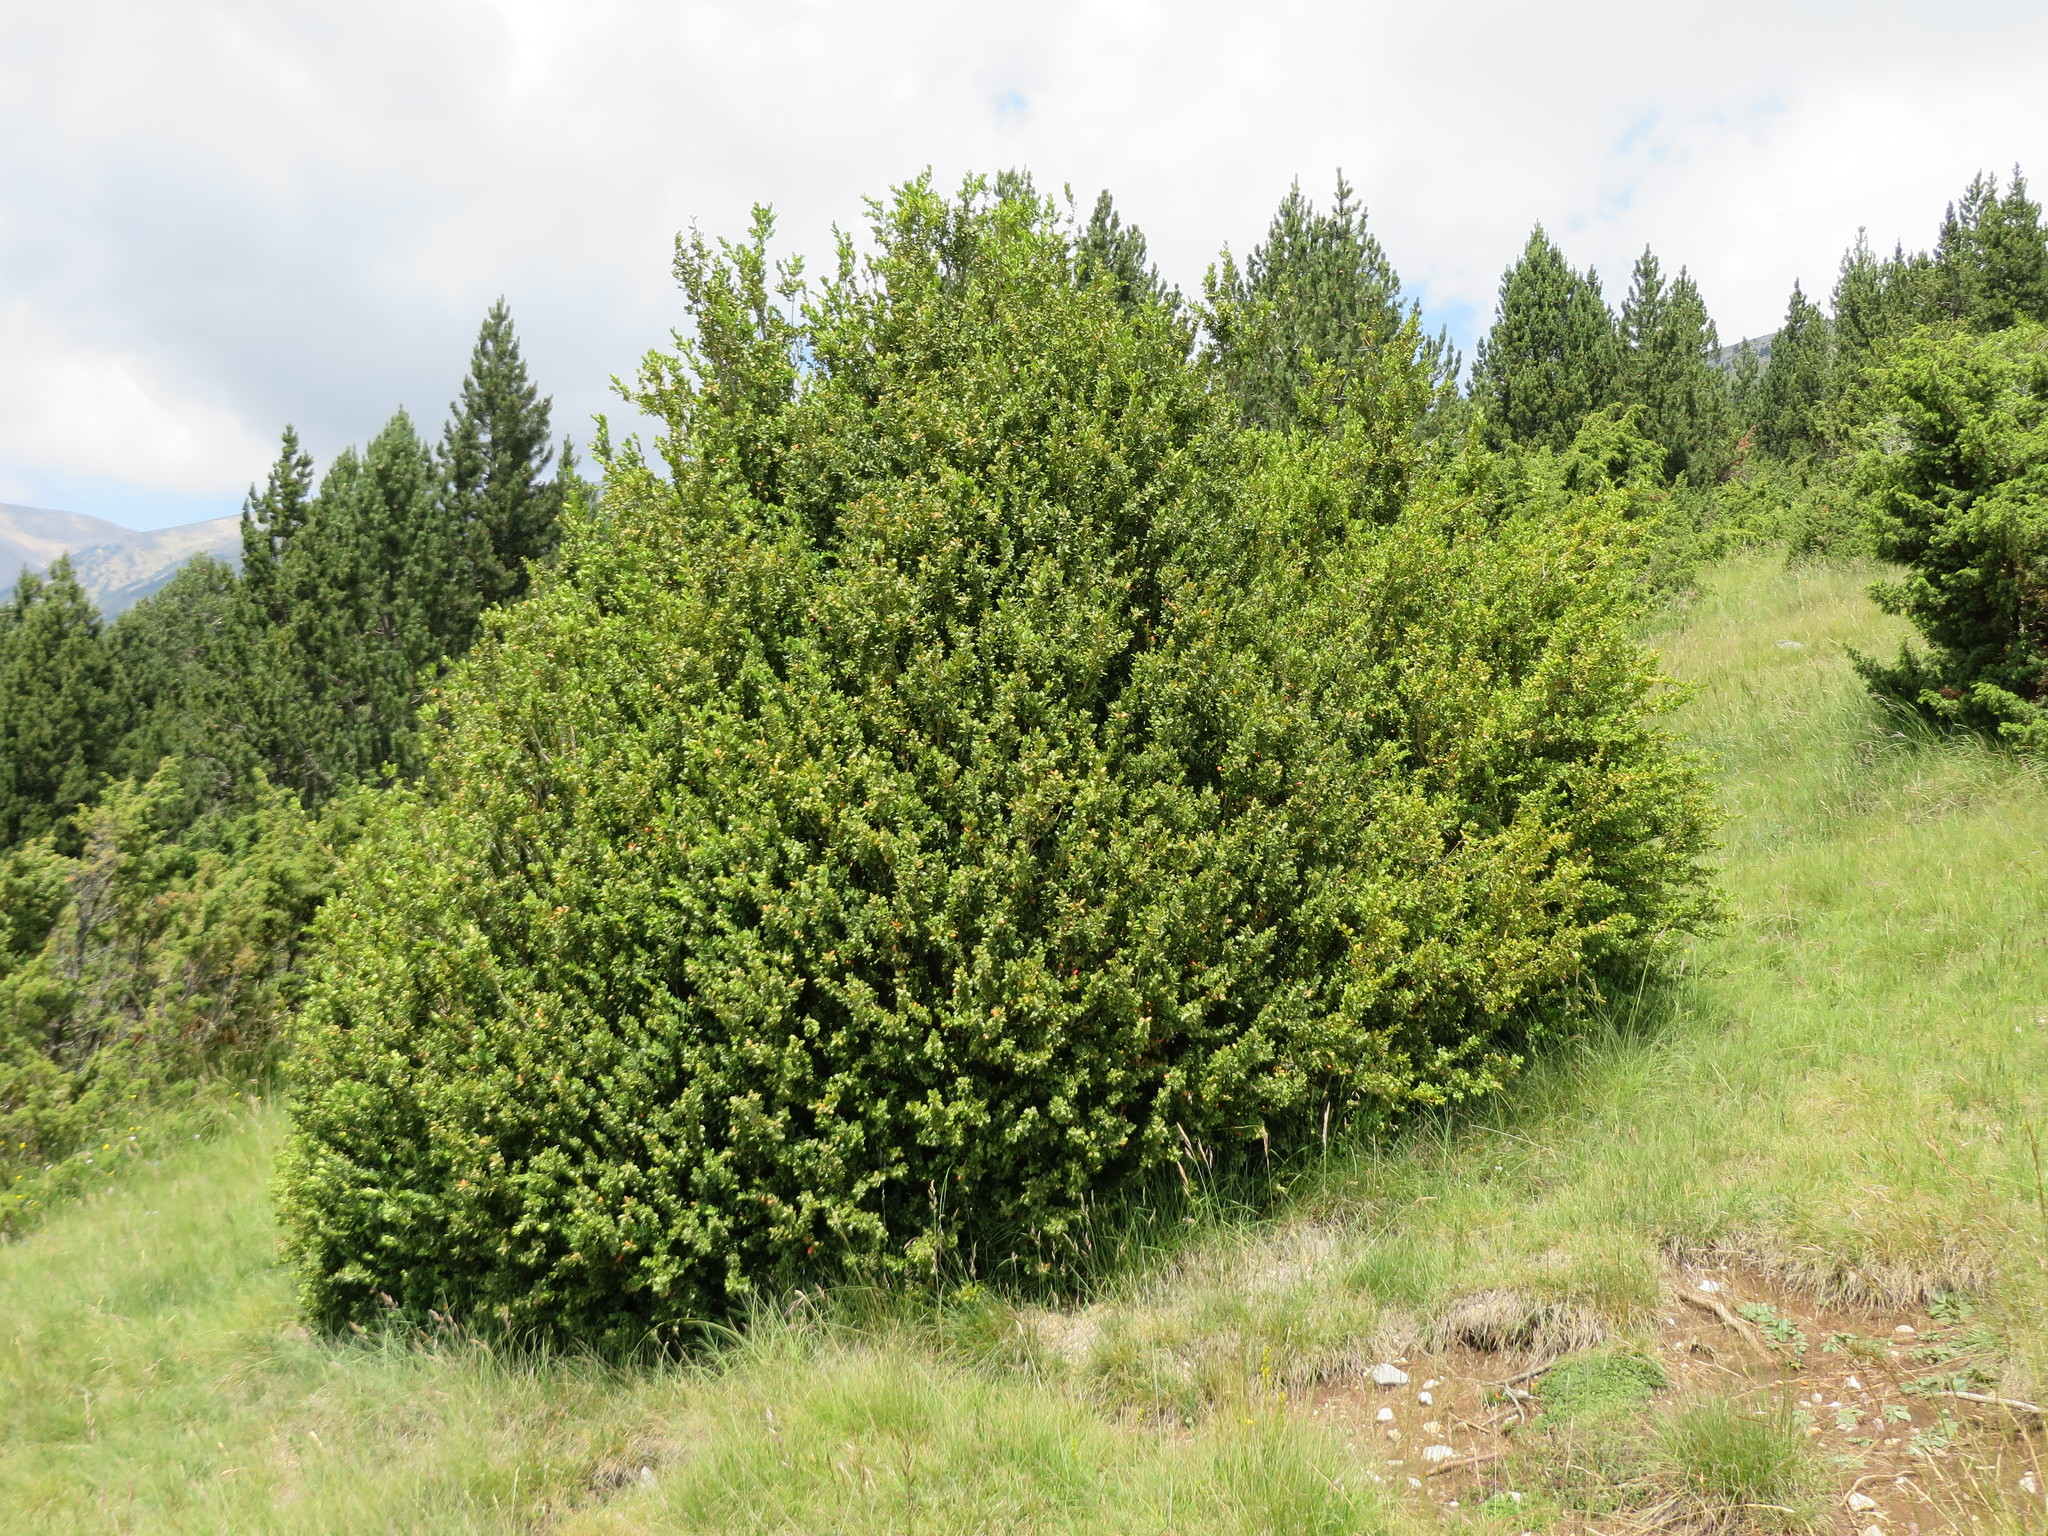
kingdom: Plantae
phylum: Tracheophyta
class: Magnoliopsida
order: Buxales
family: Buxaceae
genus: Buxus
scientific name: Buxus sempervirens
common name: Box
